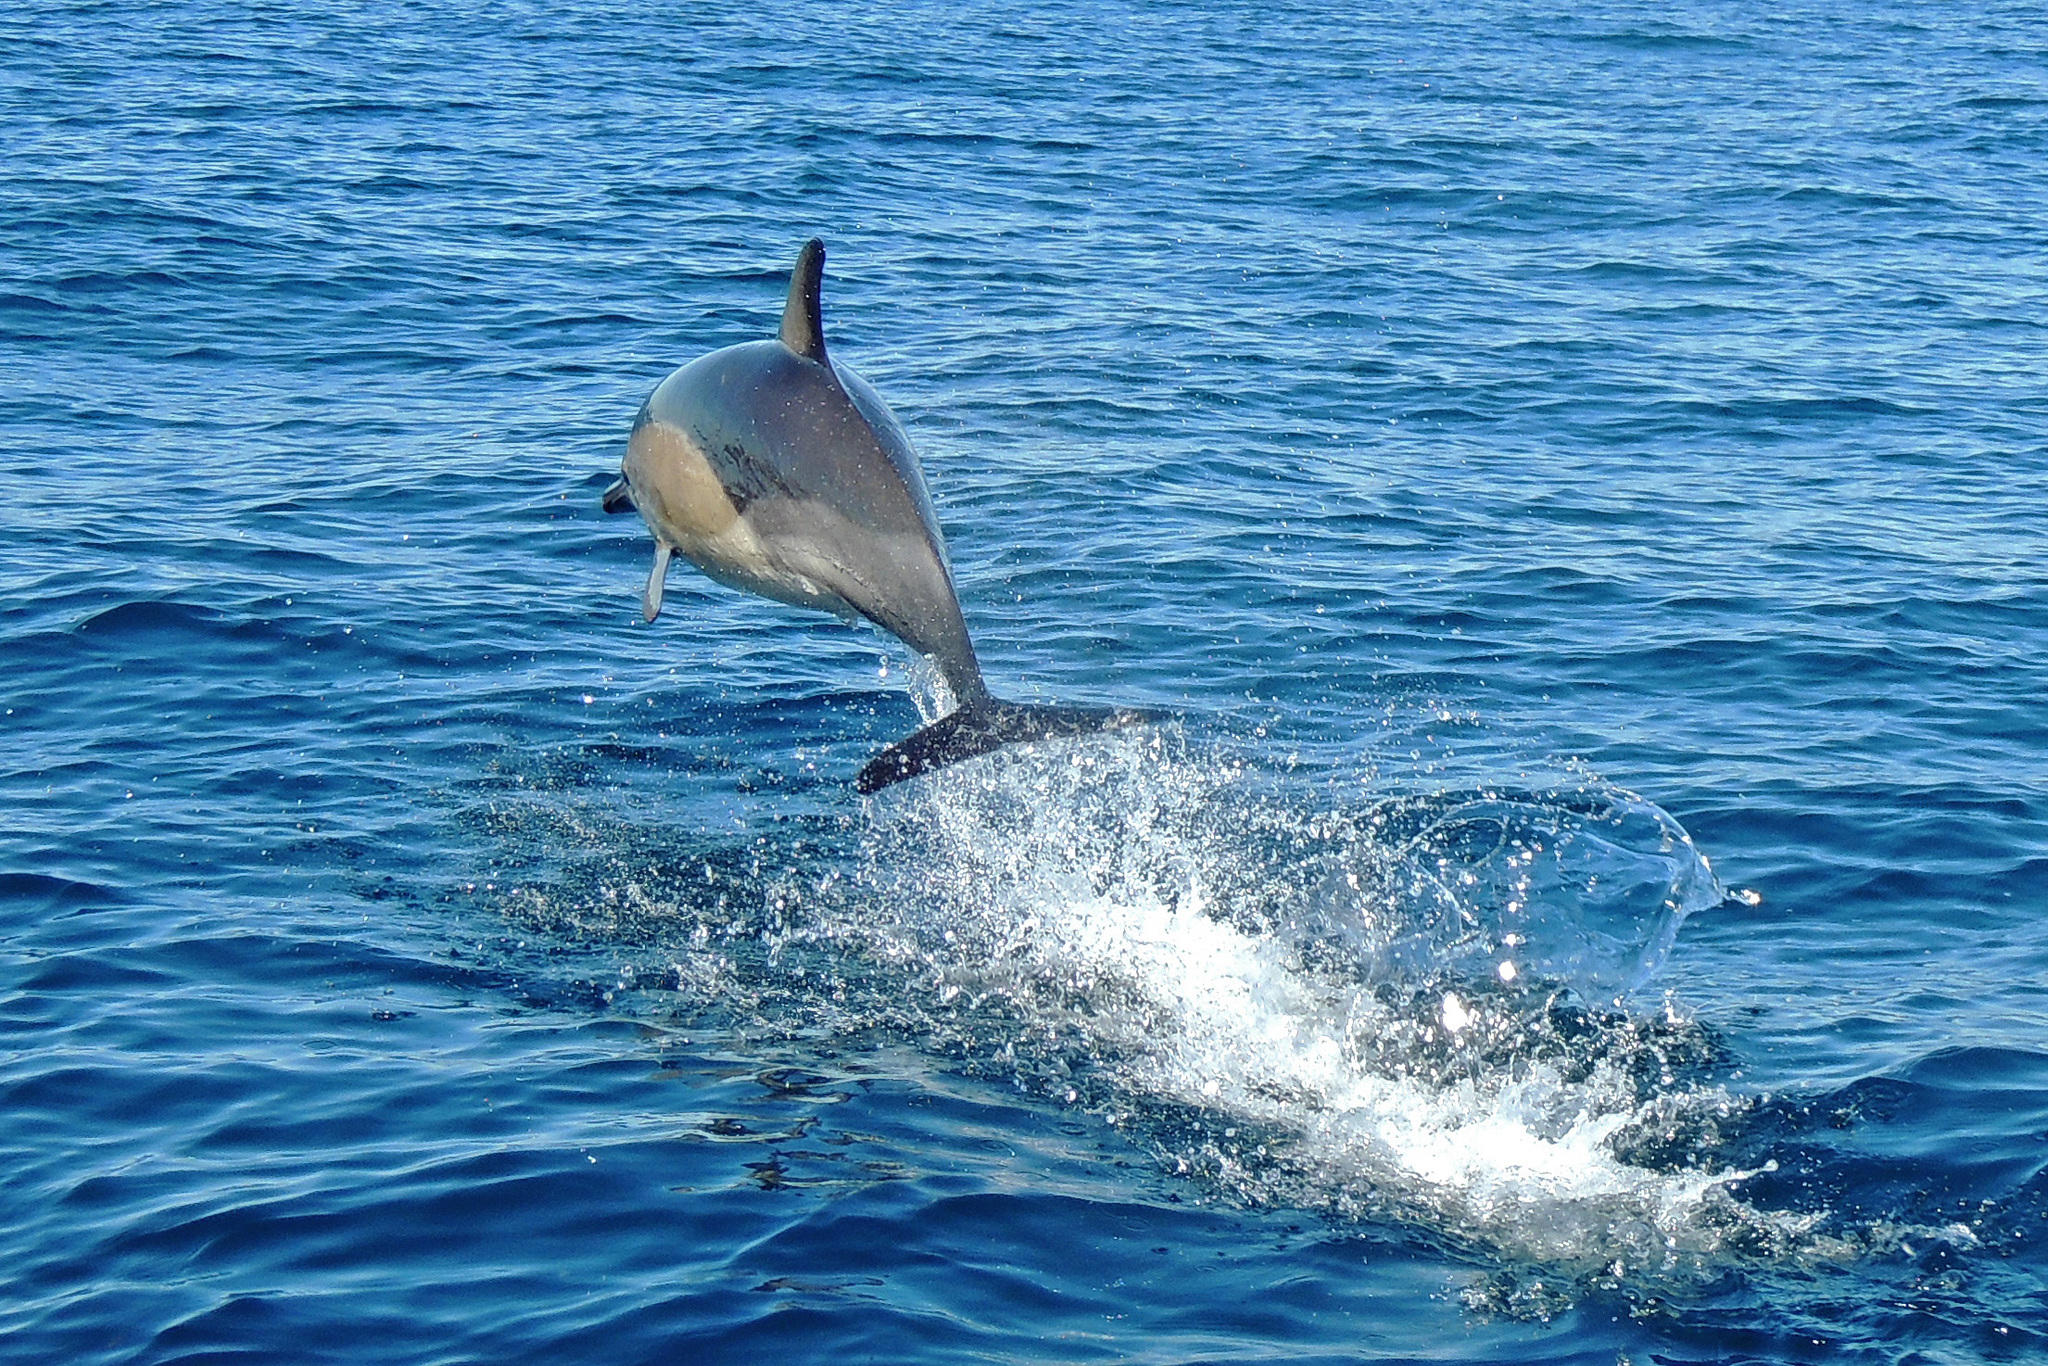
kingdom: Animalia
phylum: Chordata
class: Mammalia
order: Cetacea
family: Delphinidae
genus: Delphinus
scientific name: Delphinus delphis
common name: Common dolphin
